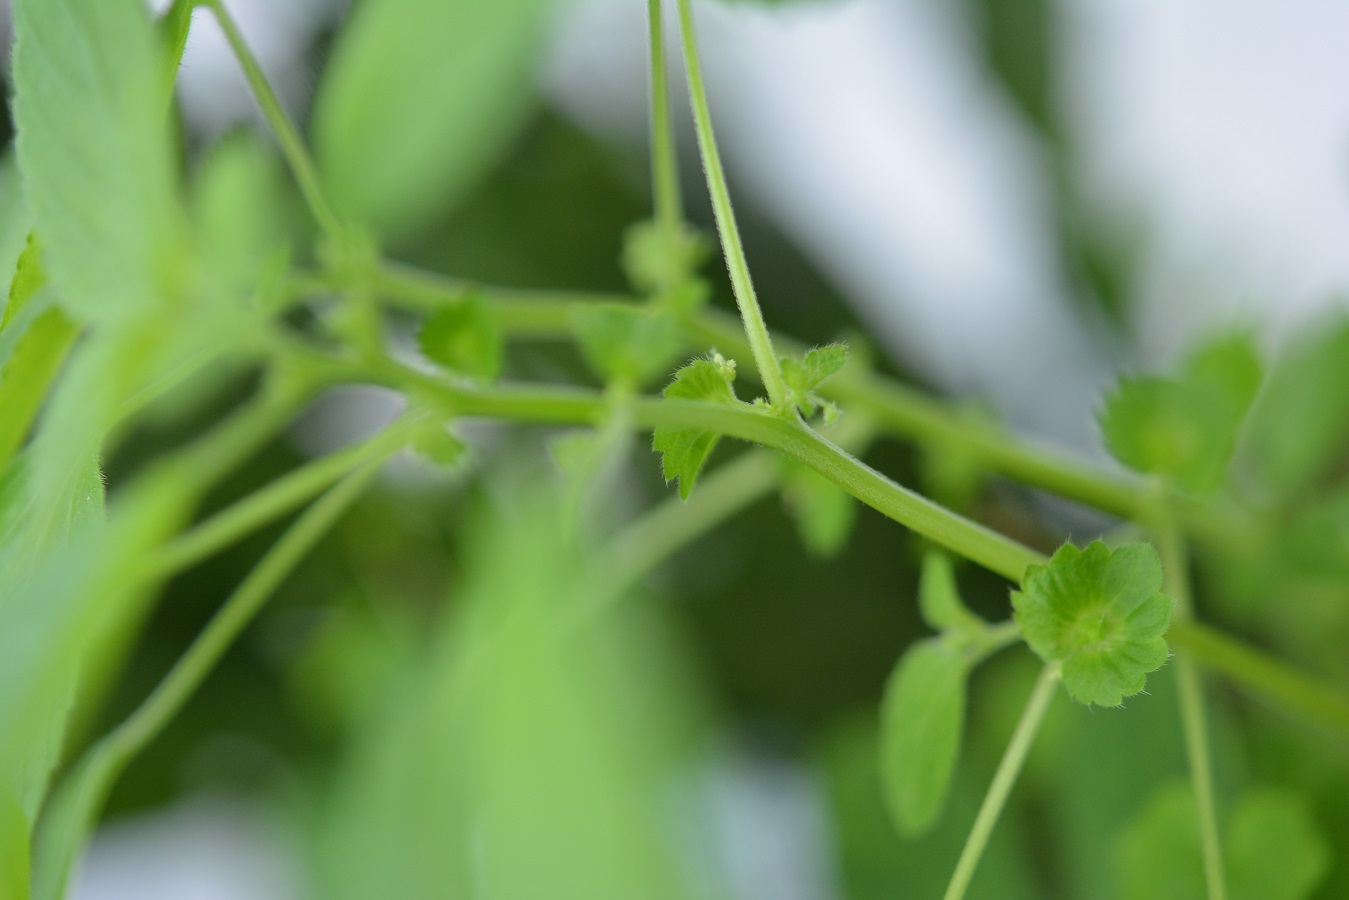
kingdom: Plantae
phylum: Tracheophyta
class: Magnoliopsida
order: Malpighiales
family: Euphorbiaceae
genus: Acalypha
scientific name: Acalypha mexicana
